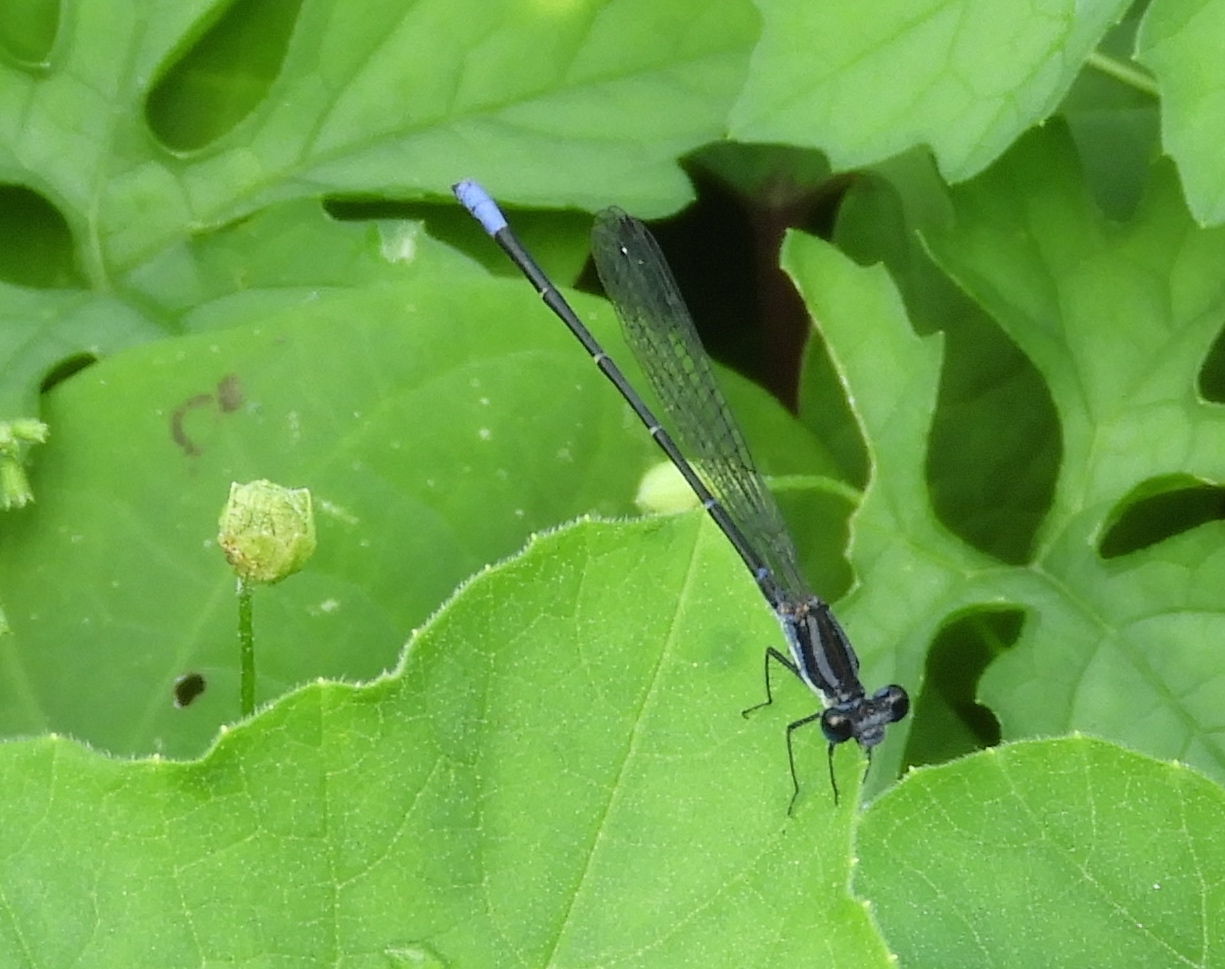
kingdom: Animalia
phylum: Arthropoda
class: Insecta
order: Odonata
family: Coenagrionidae
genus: Argia
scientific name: Argia pulla
